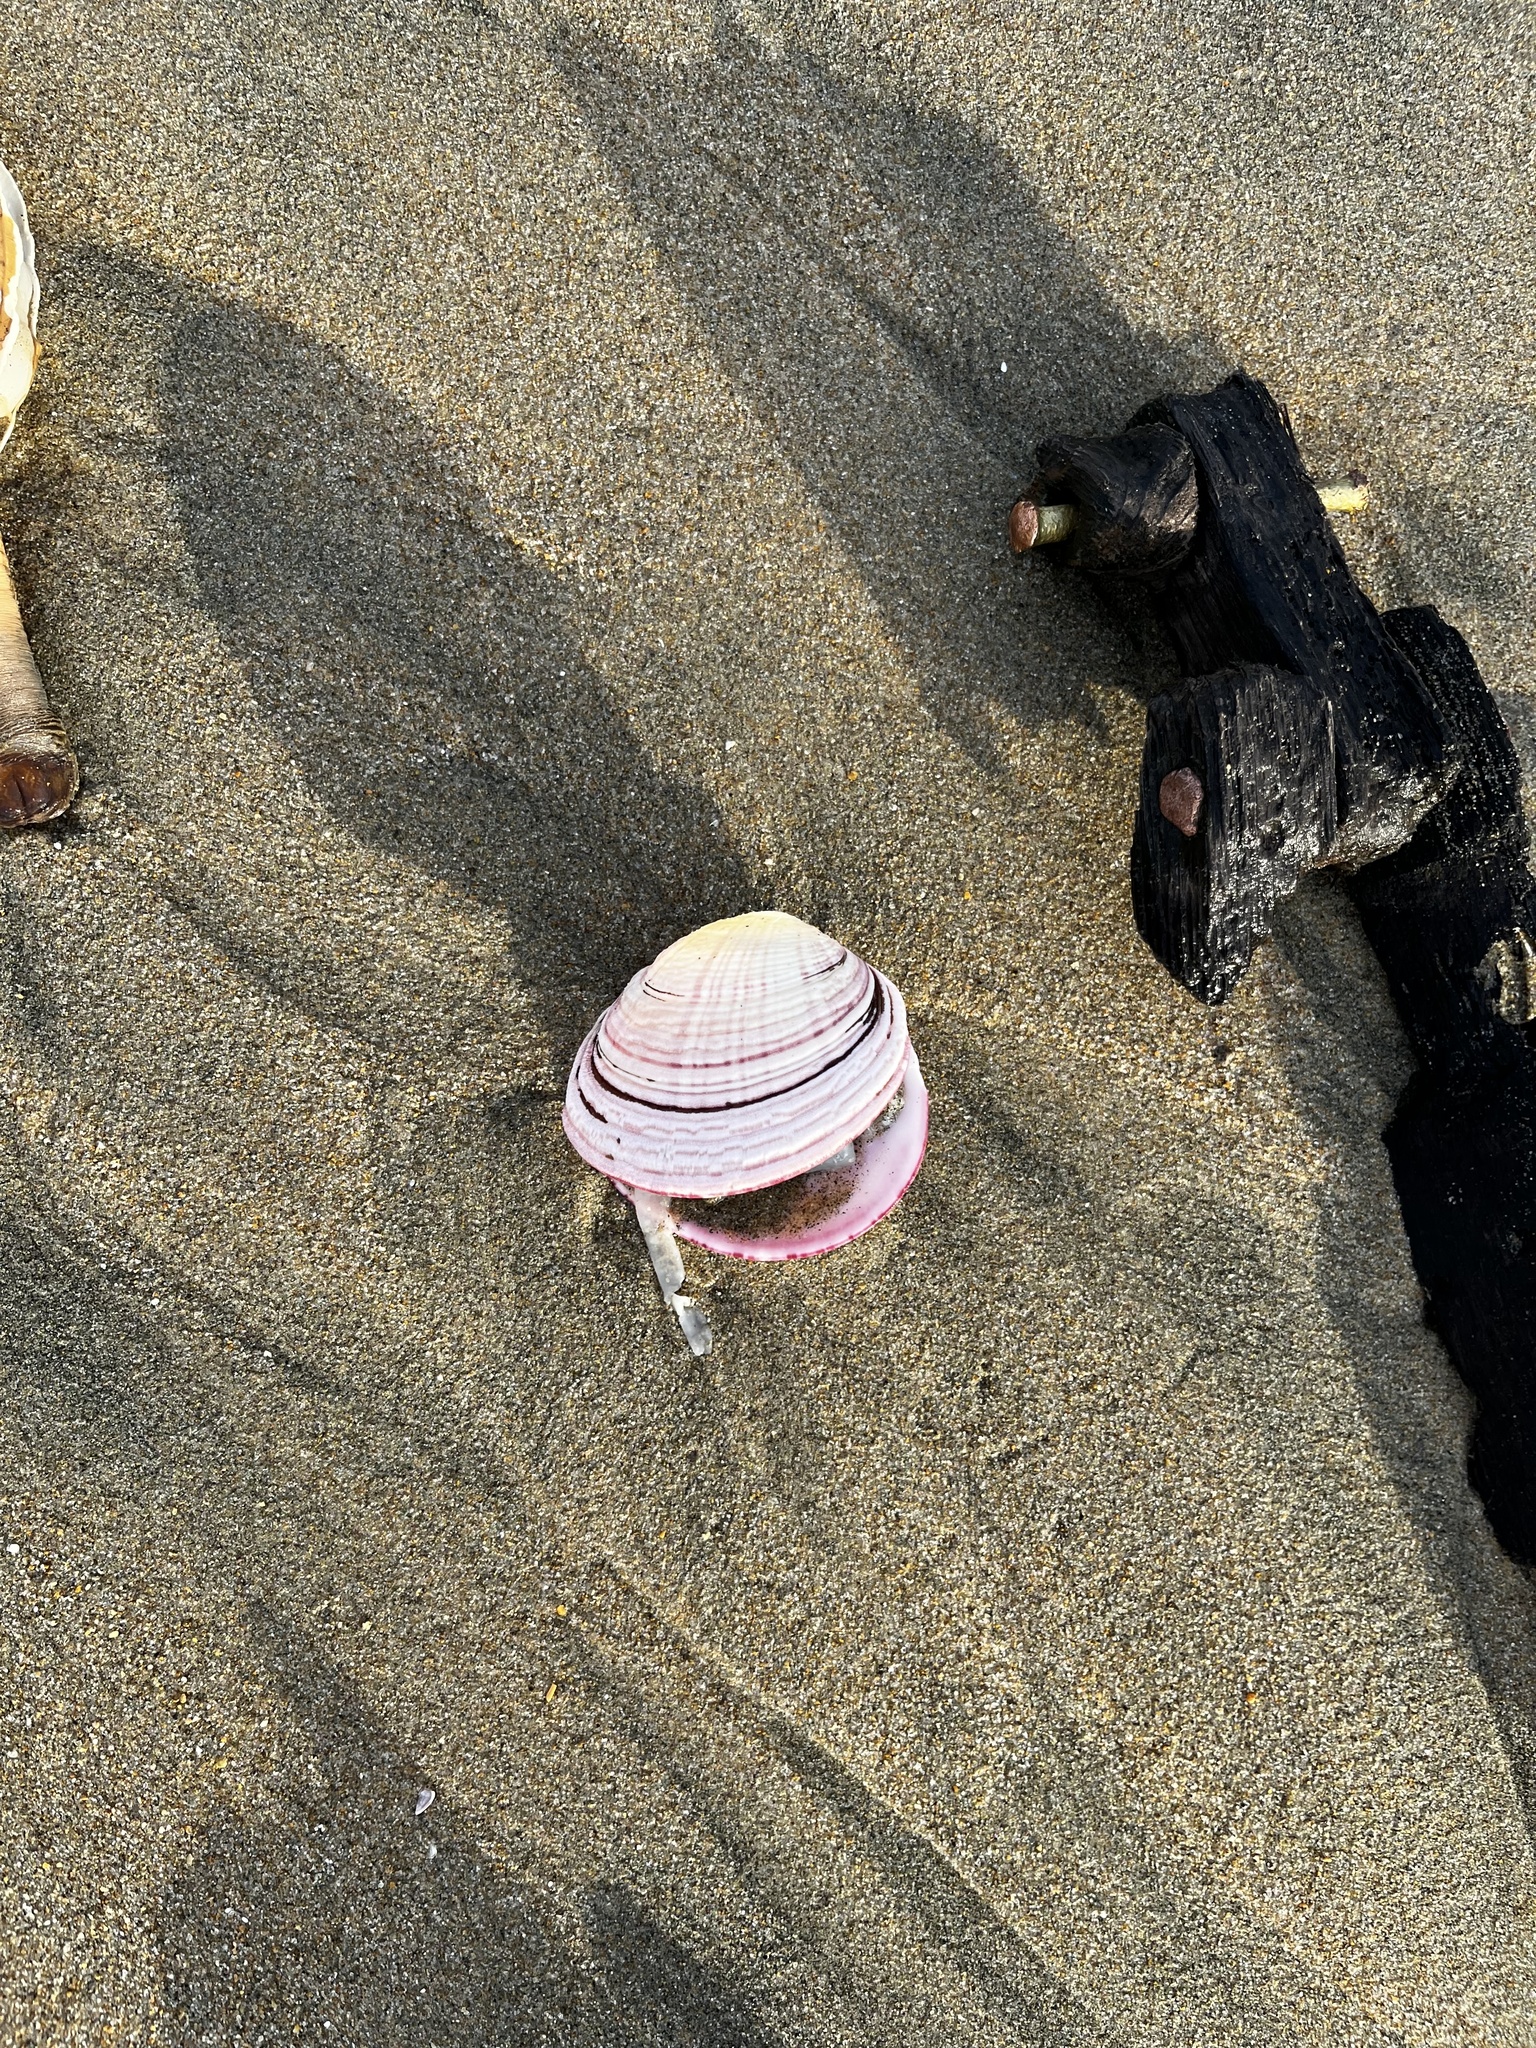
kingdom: Animalia
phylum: Mollusca
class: Bivalvia
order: Cardiida
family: Semelidae
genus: Semele
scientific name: Semele decisa
